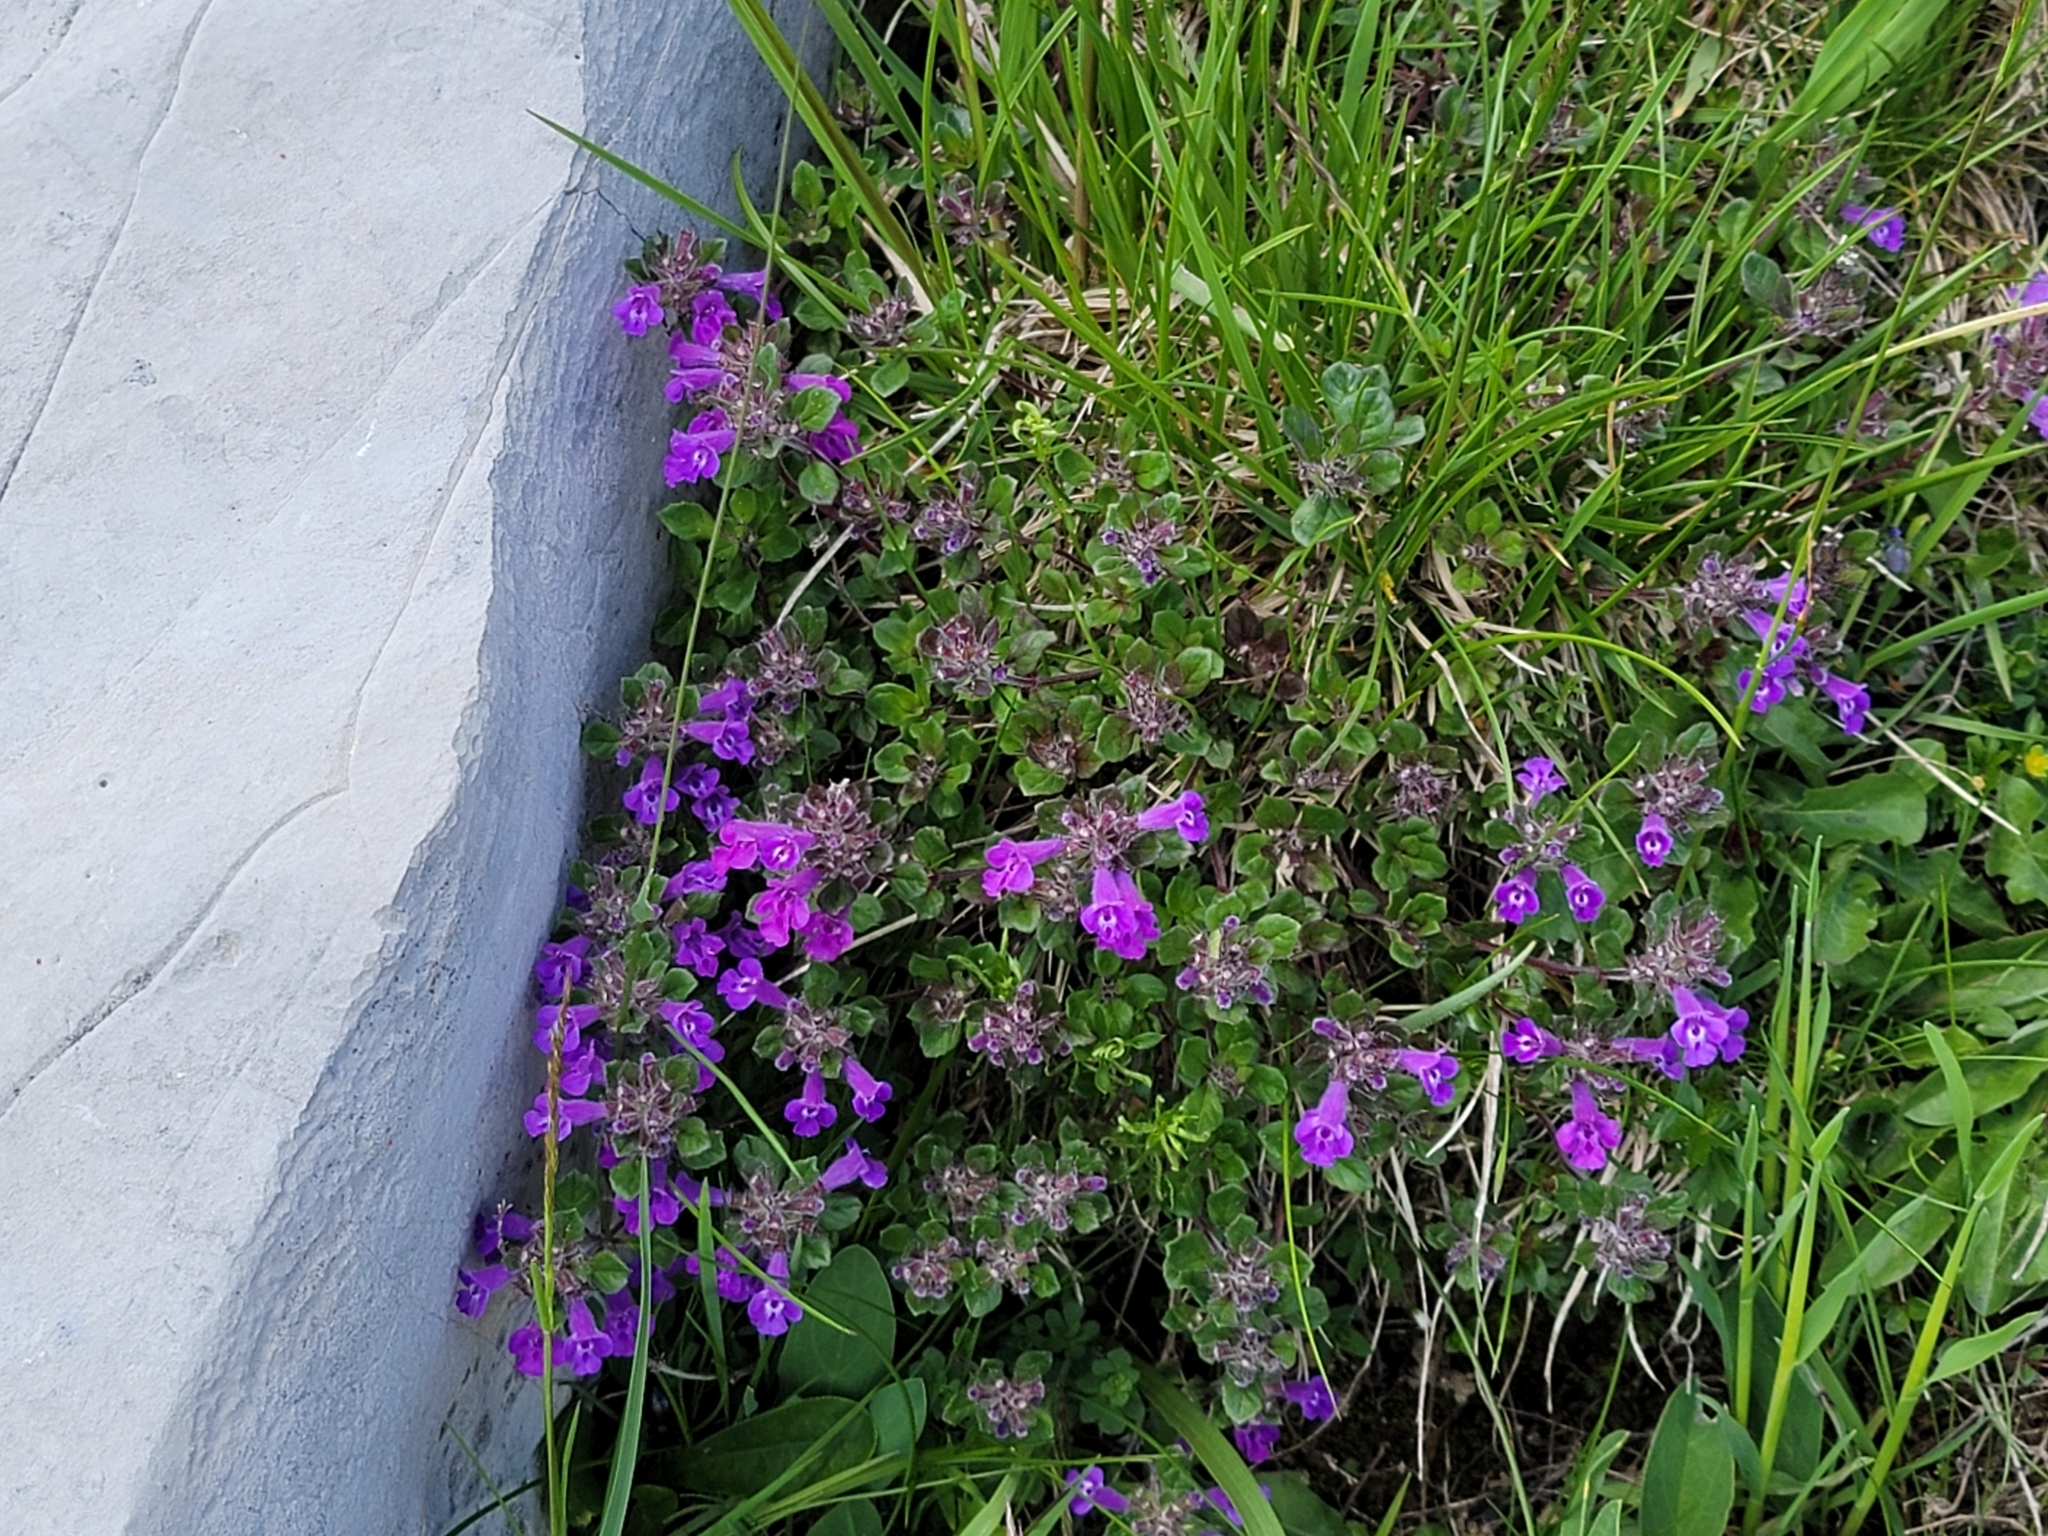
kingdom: Plantae
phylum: Tracheophyta
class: Magnoliopsida
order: Lamiales
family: Lamiaceae
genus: Clinopodium
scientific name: Clinopodium alpinum
